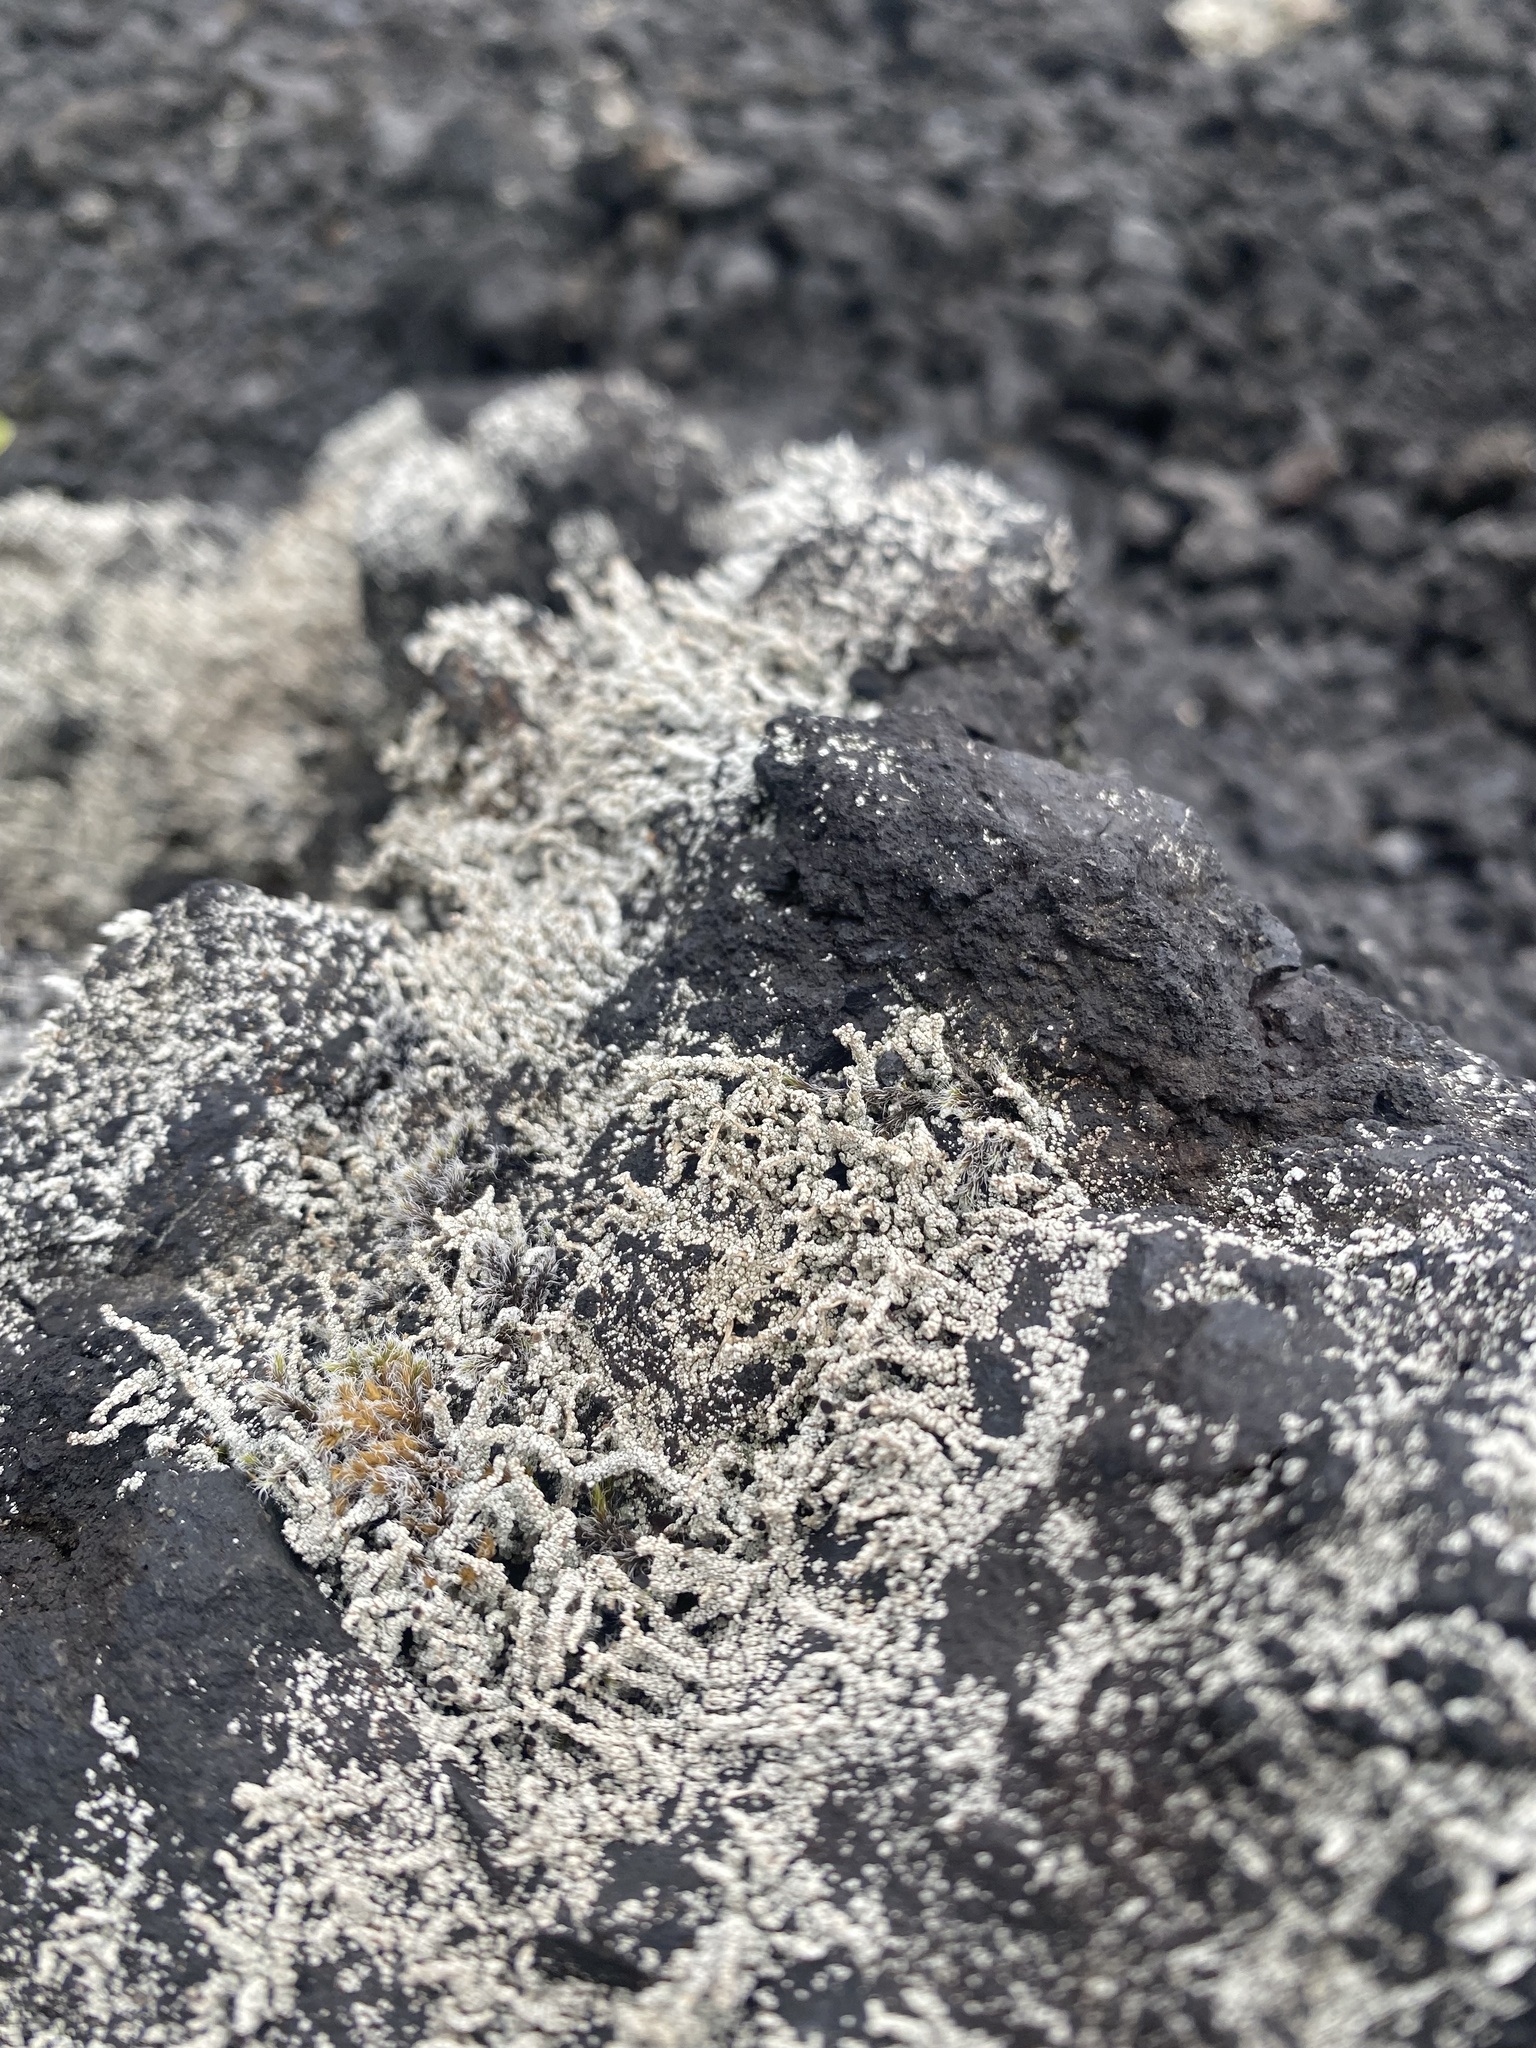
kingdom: Fungi
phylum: Ascomycota
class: Lecanoromycetes
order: Lecanorales
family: Stereocaulaceae
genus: Stereocaulon
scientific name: Stereocaulon
